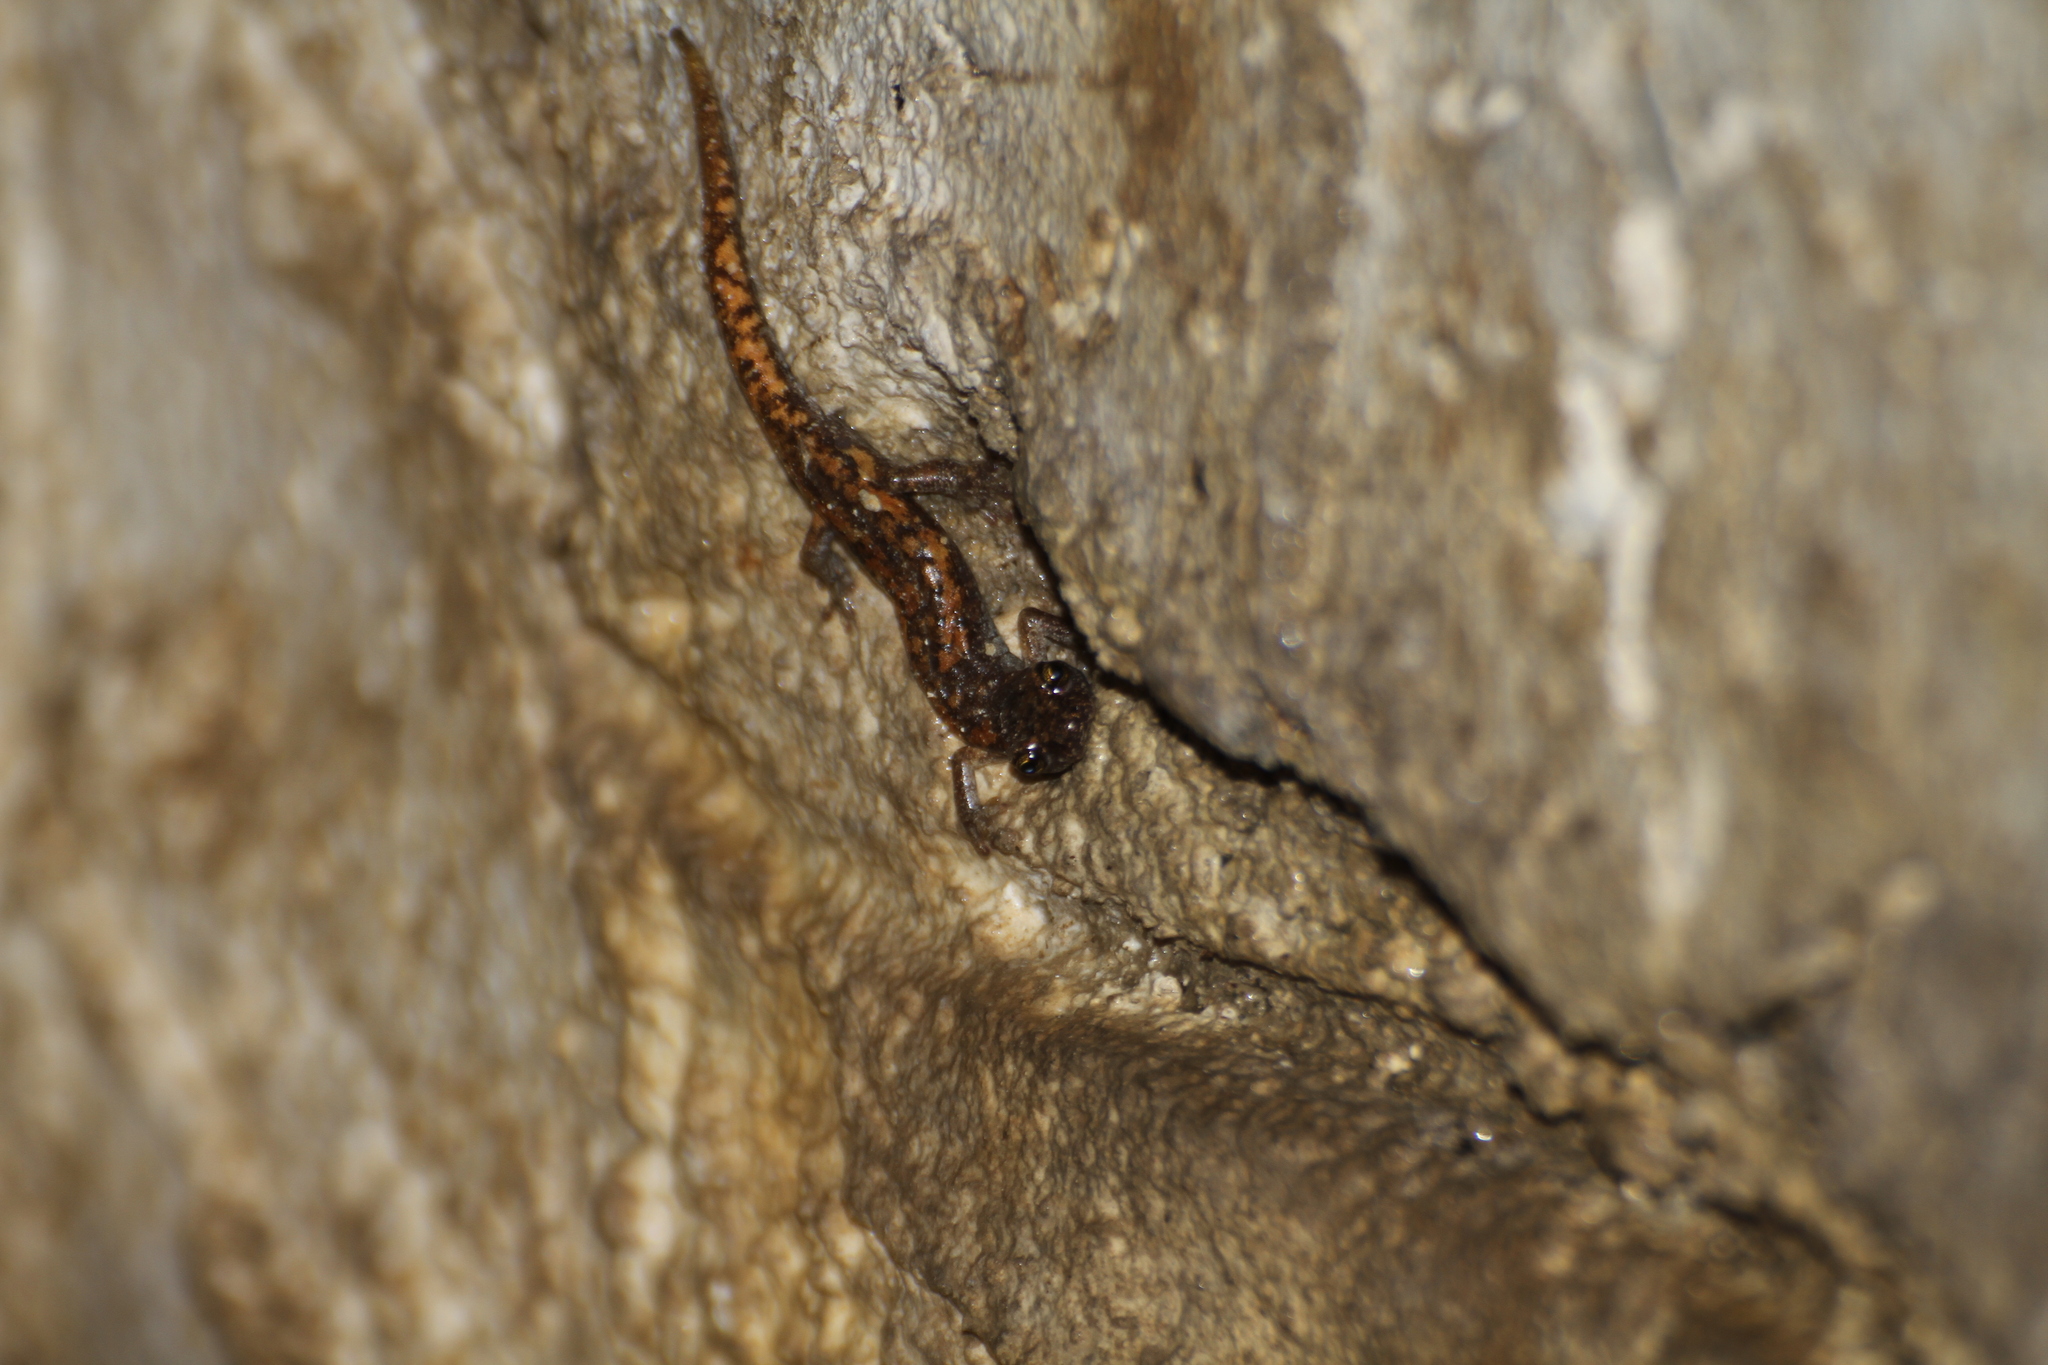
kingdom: Animalia
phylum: Chordata
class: Amphibia
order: Caudata
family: Plethodontidae
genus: Speleomantes
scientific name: Speleomantes strinatii
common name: French cave salamander
